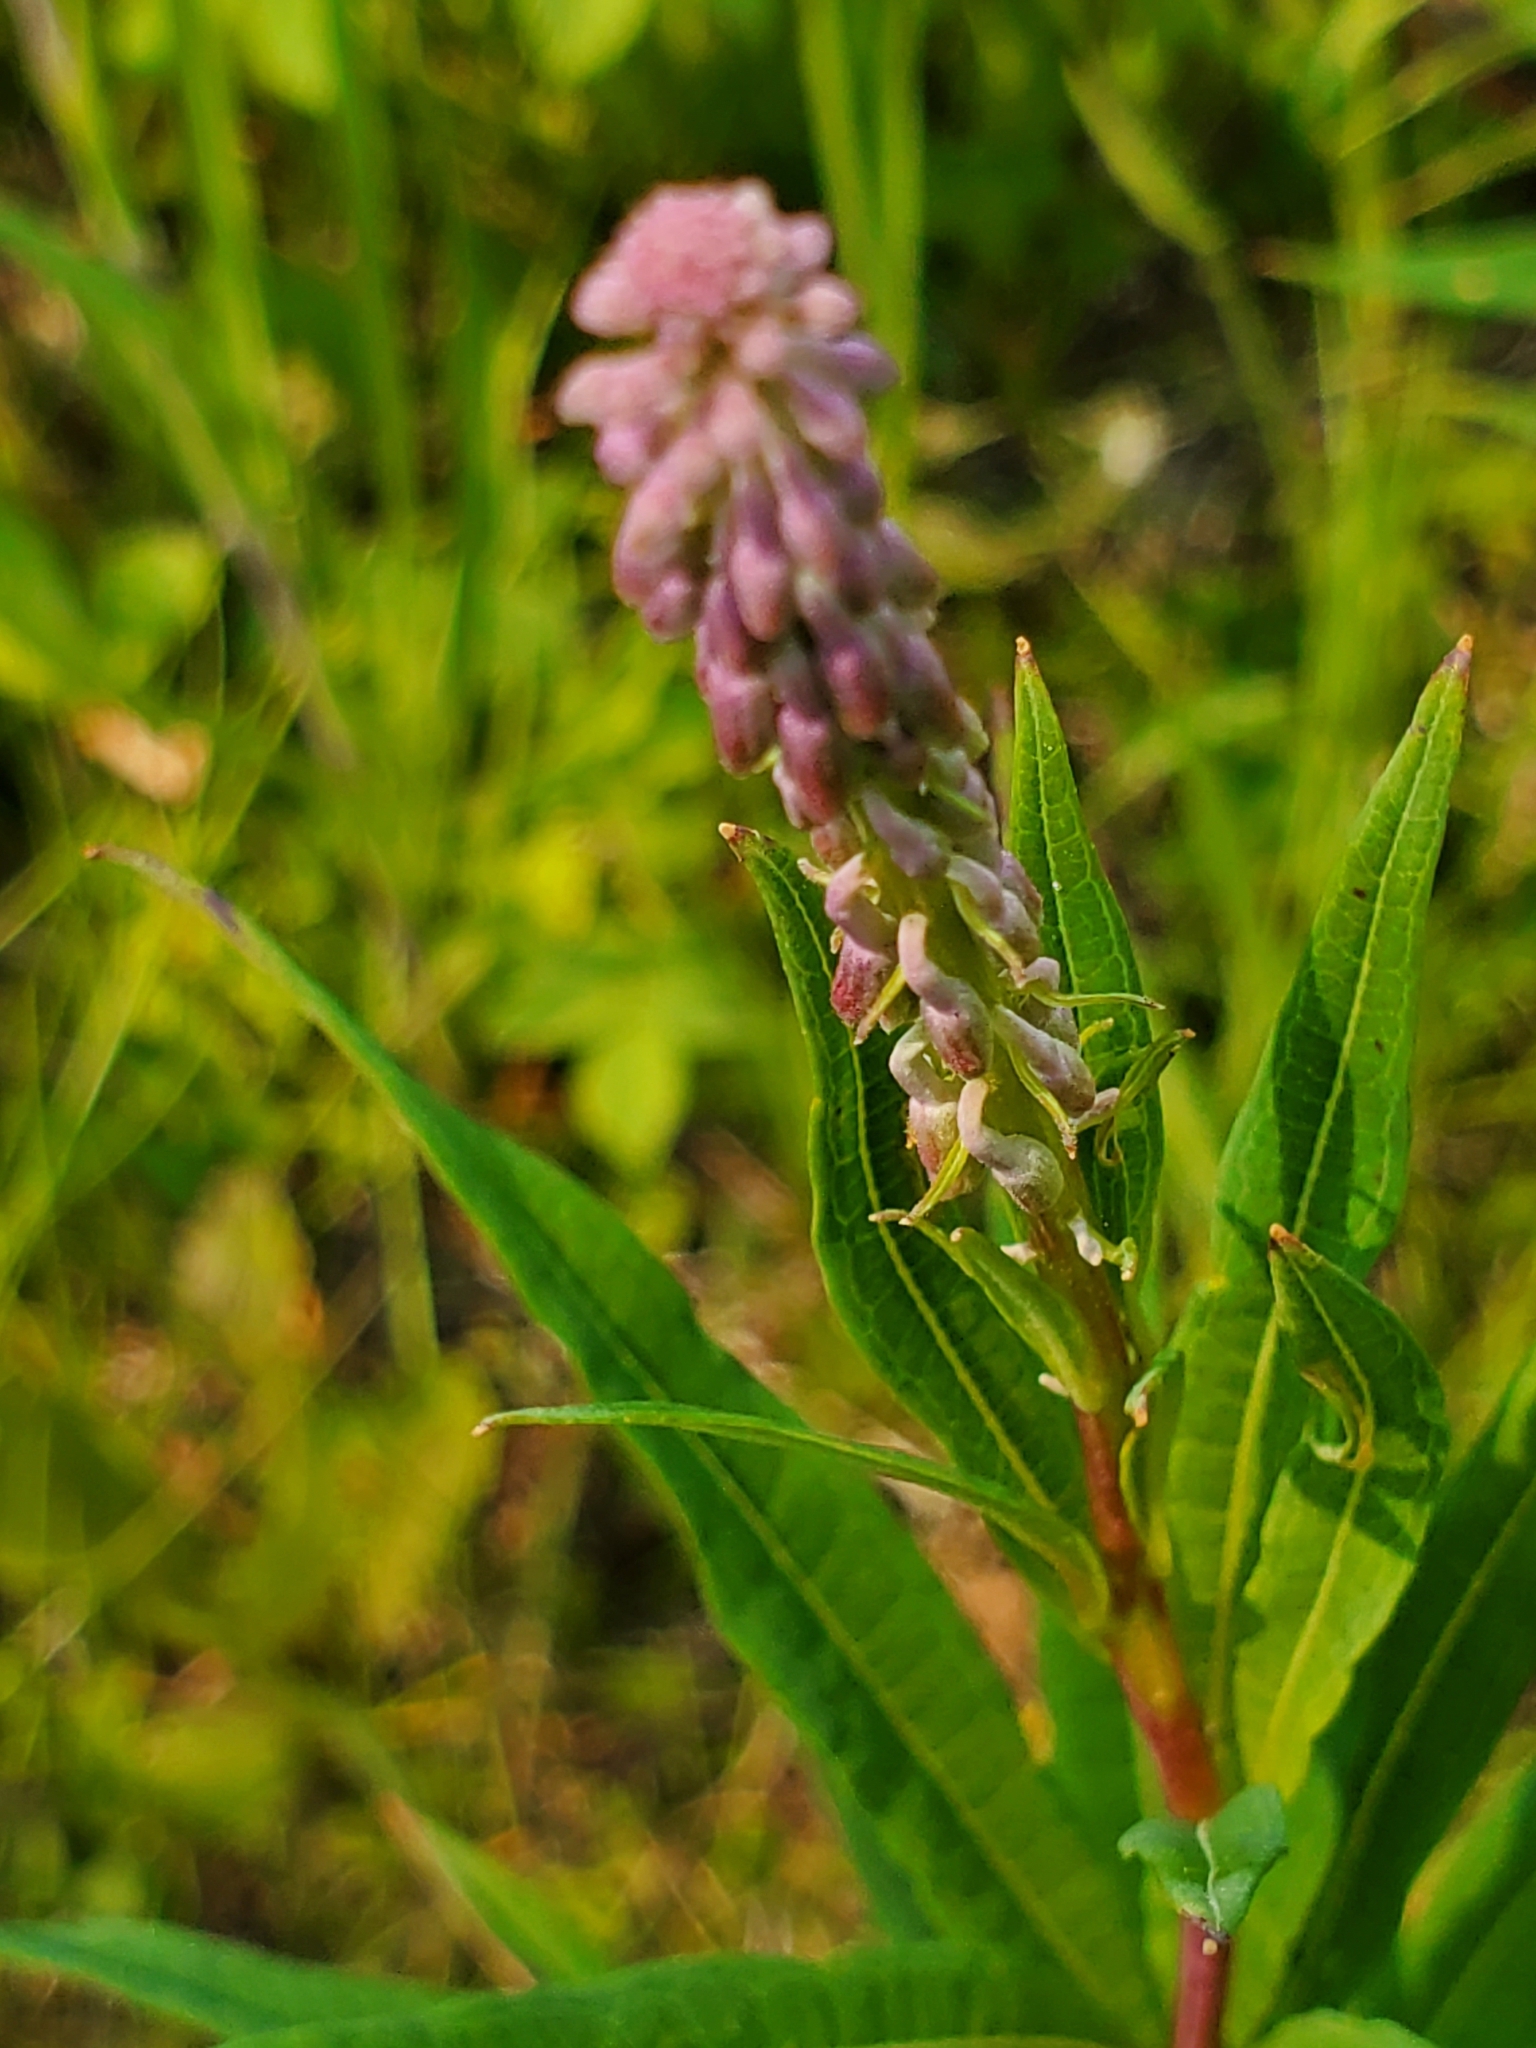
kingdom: Plantae
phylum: Tracheophyta
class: Magnoliopsida
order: Myrtales
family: Onagraceae
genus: Chamaenerion
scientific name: Chamaenerion angustifolium
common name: Fireweed
